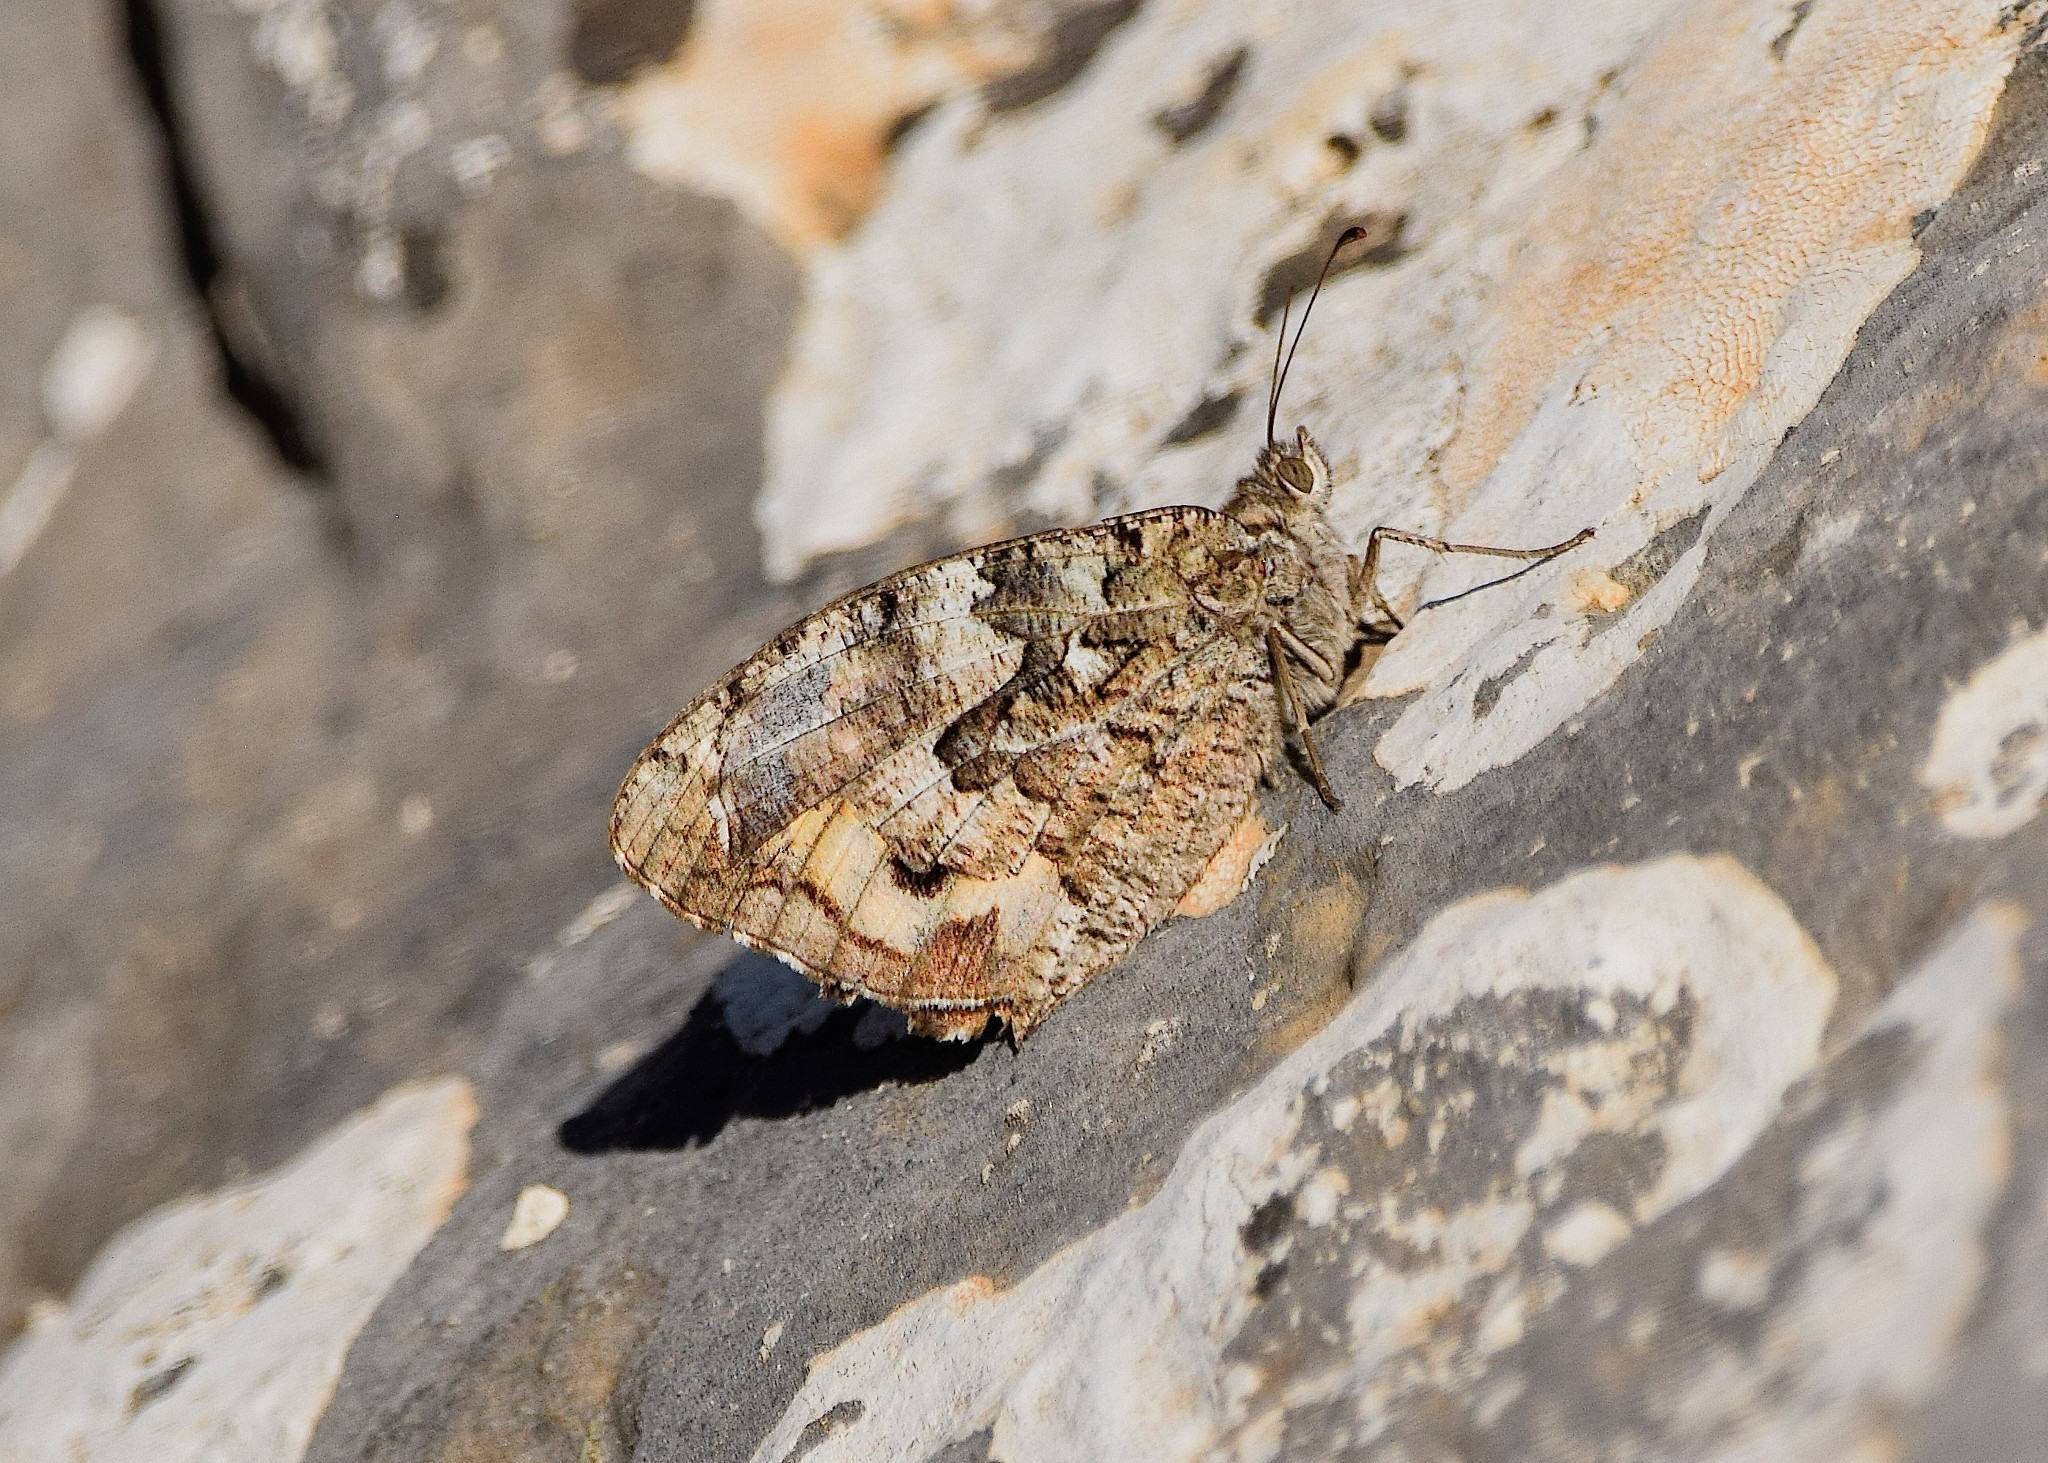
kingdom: Animalia
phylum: Arthropoda
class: Insecta
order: Lepidoptera
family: Nymphalidae
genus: Hipparchia
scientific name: Hipparchia cretica
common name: Cretan grayling
